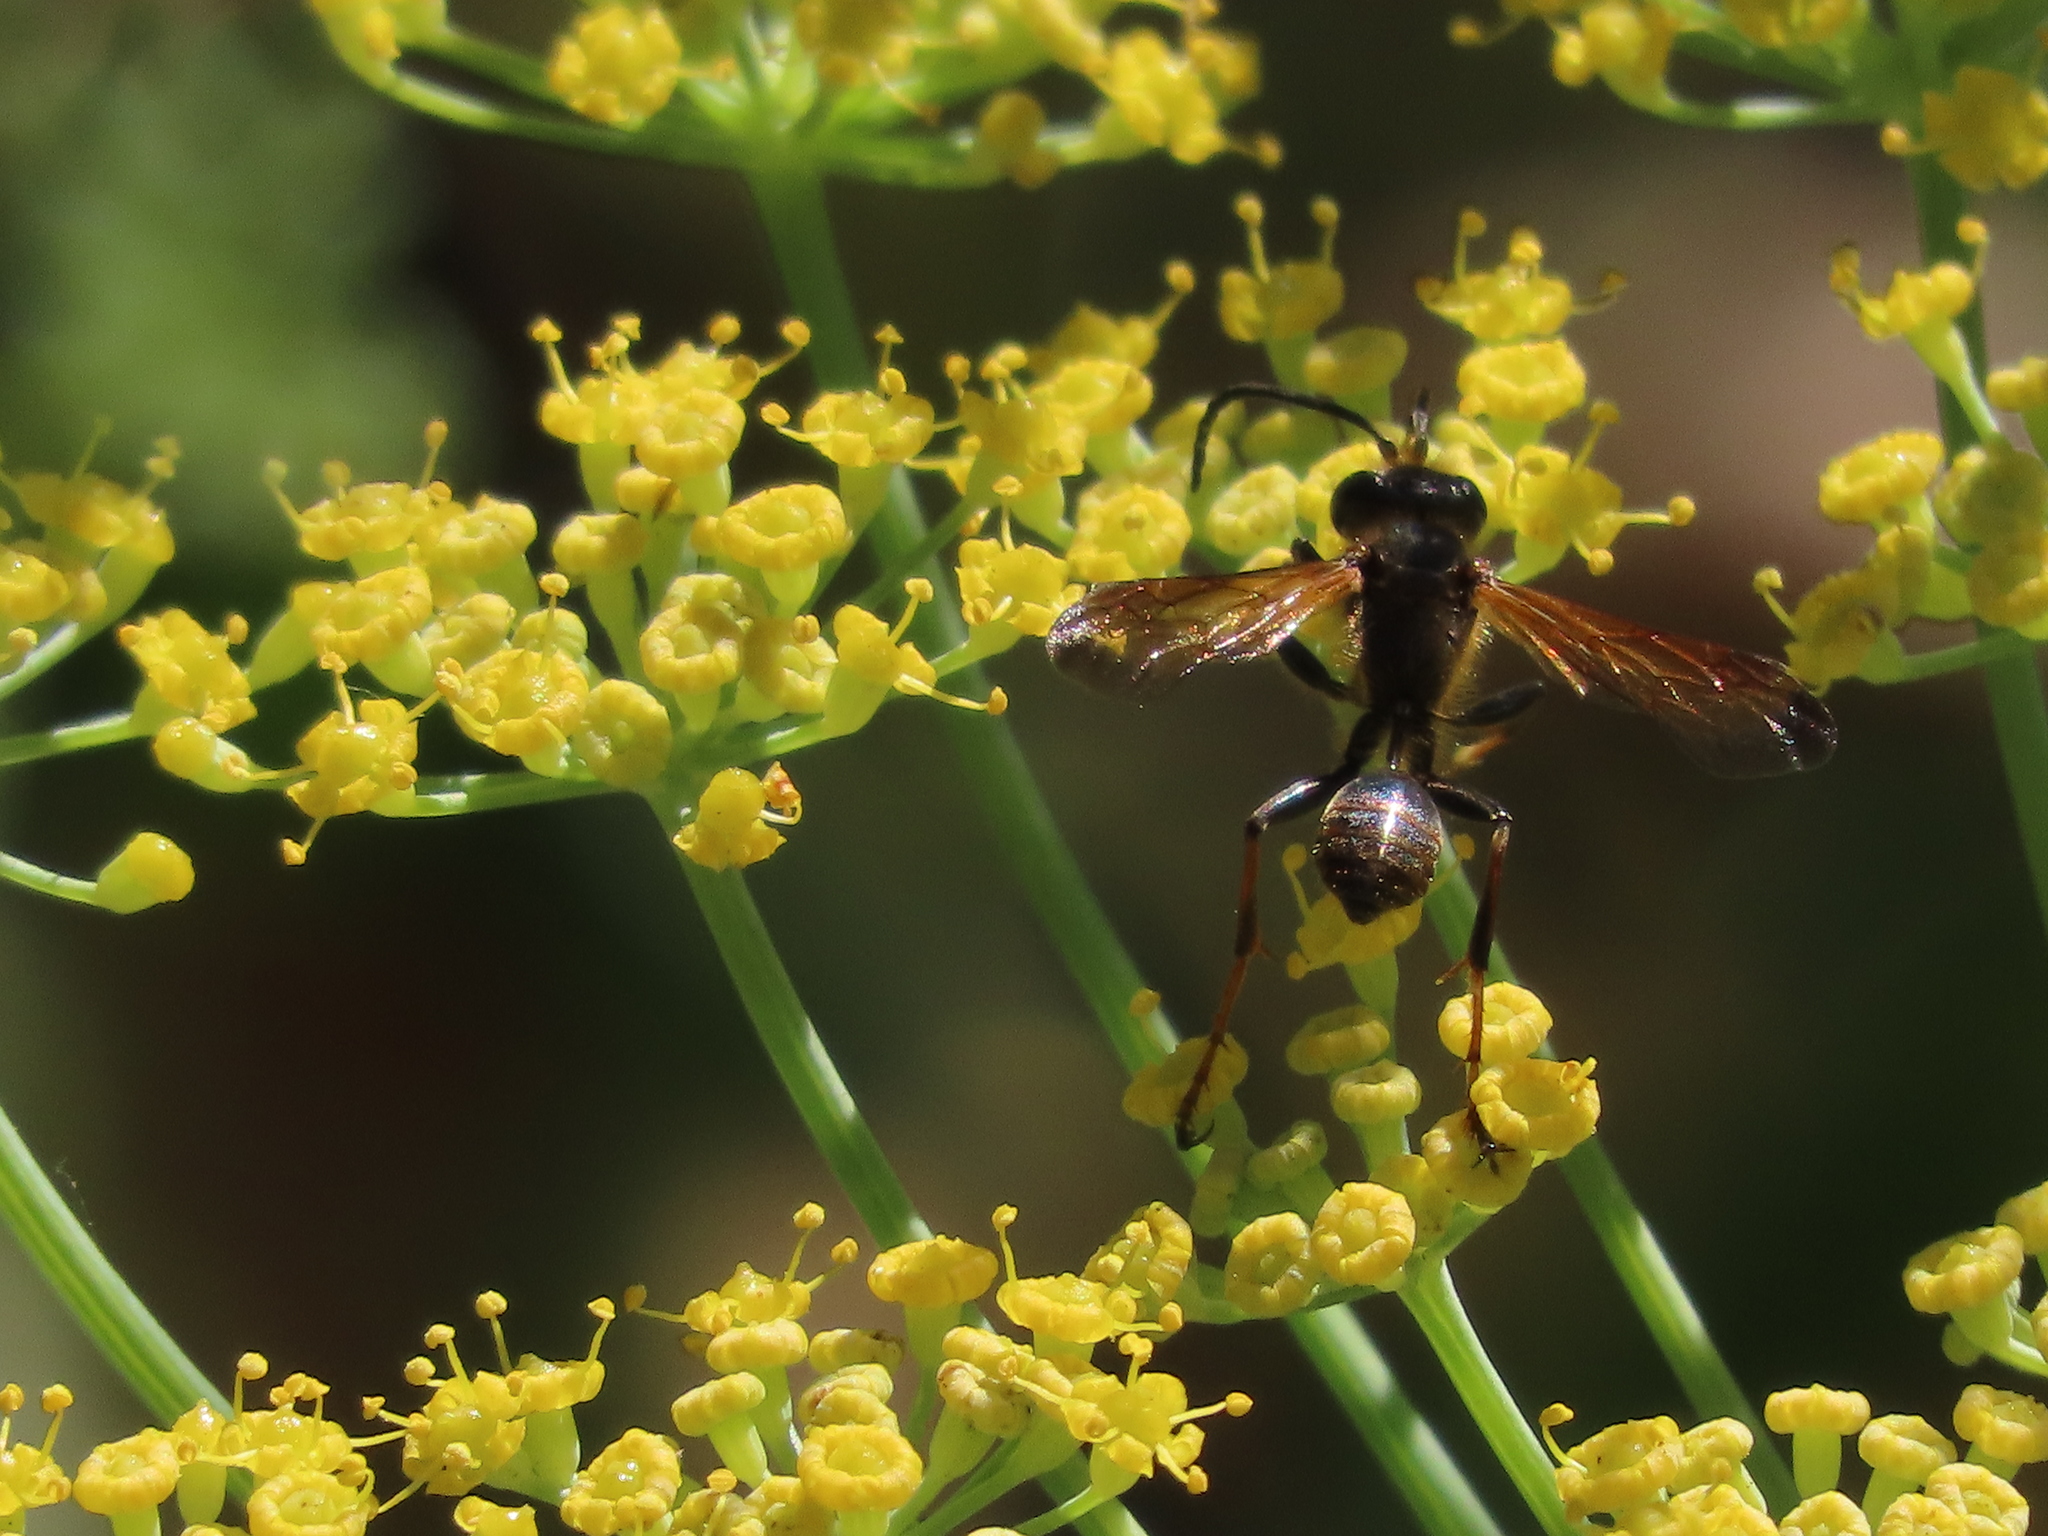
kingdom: Animalia
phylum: Arthropoda
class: Insecta
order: Hymenoptera
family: Sphecidae
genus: Isodontia
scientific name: Isodontia elegans
